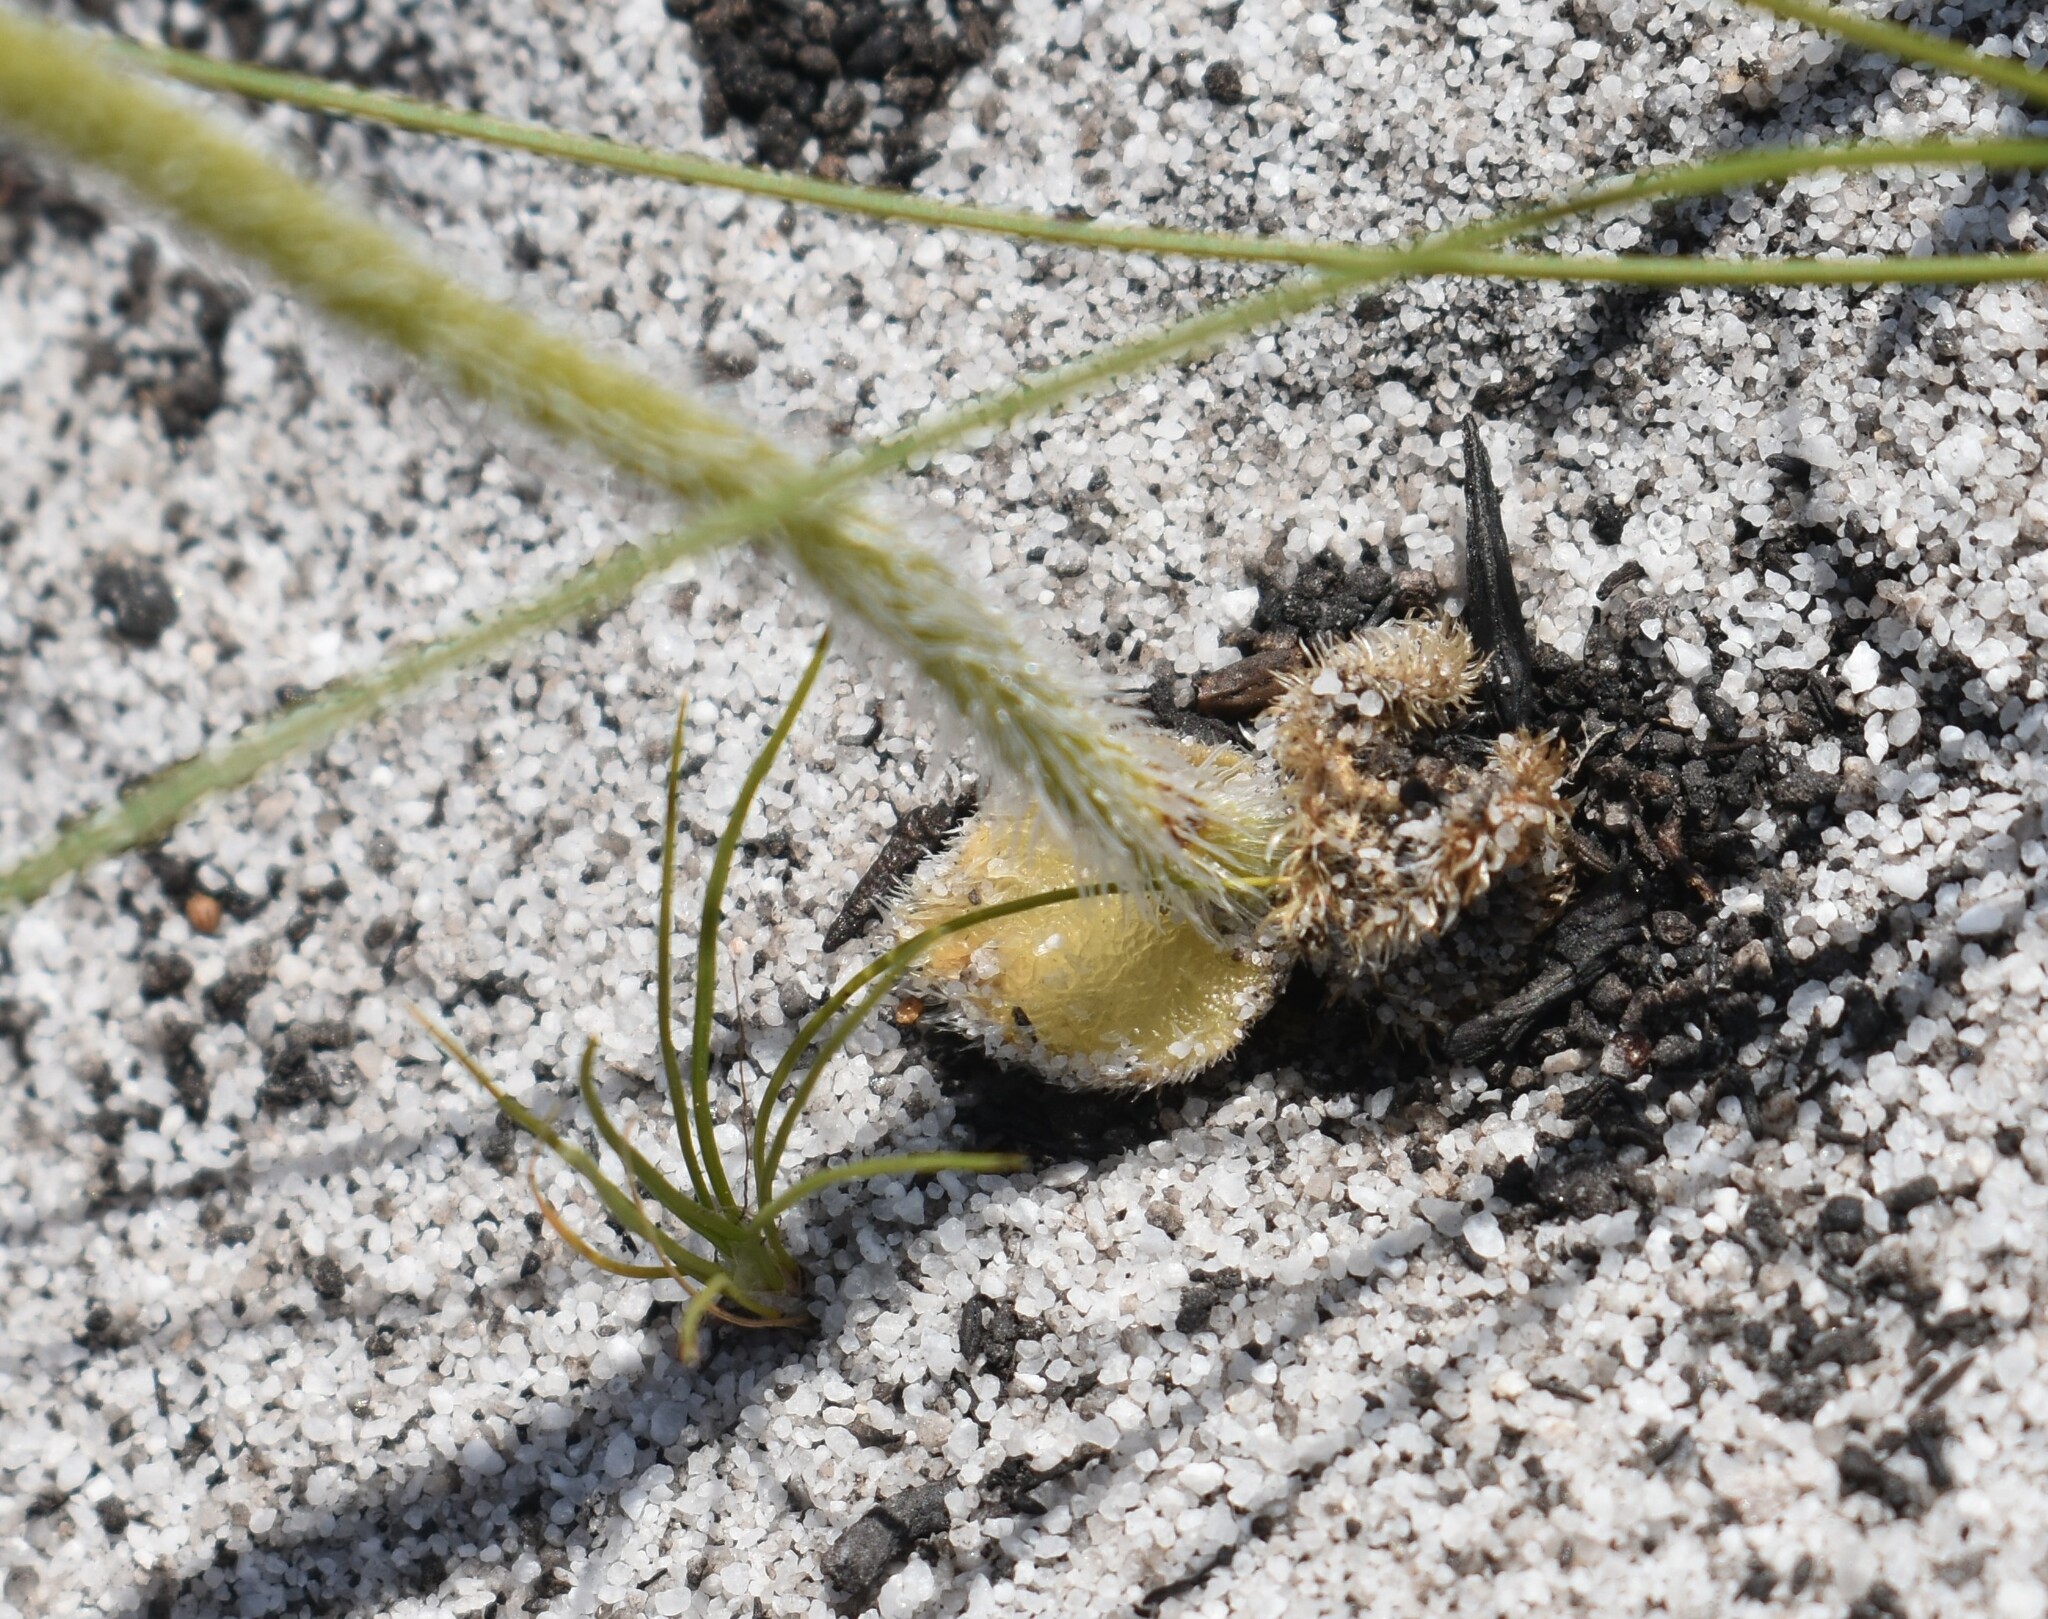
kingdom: Plantae
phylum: Tracheophyta
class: Liliopsida
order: Asparagales
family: Orchidaceae
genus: Holothrix
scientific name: Holothrix cernua
